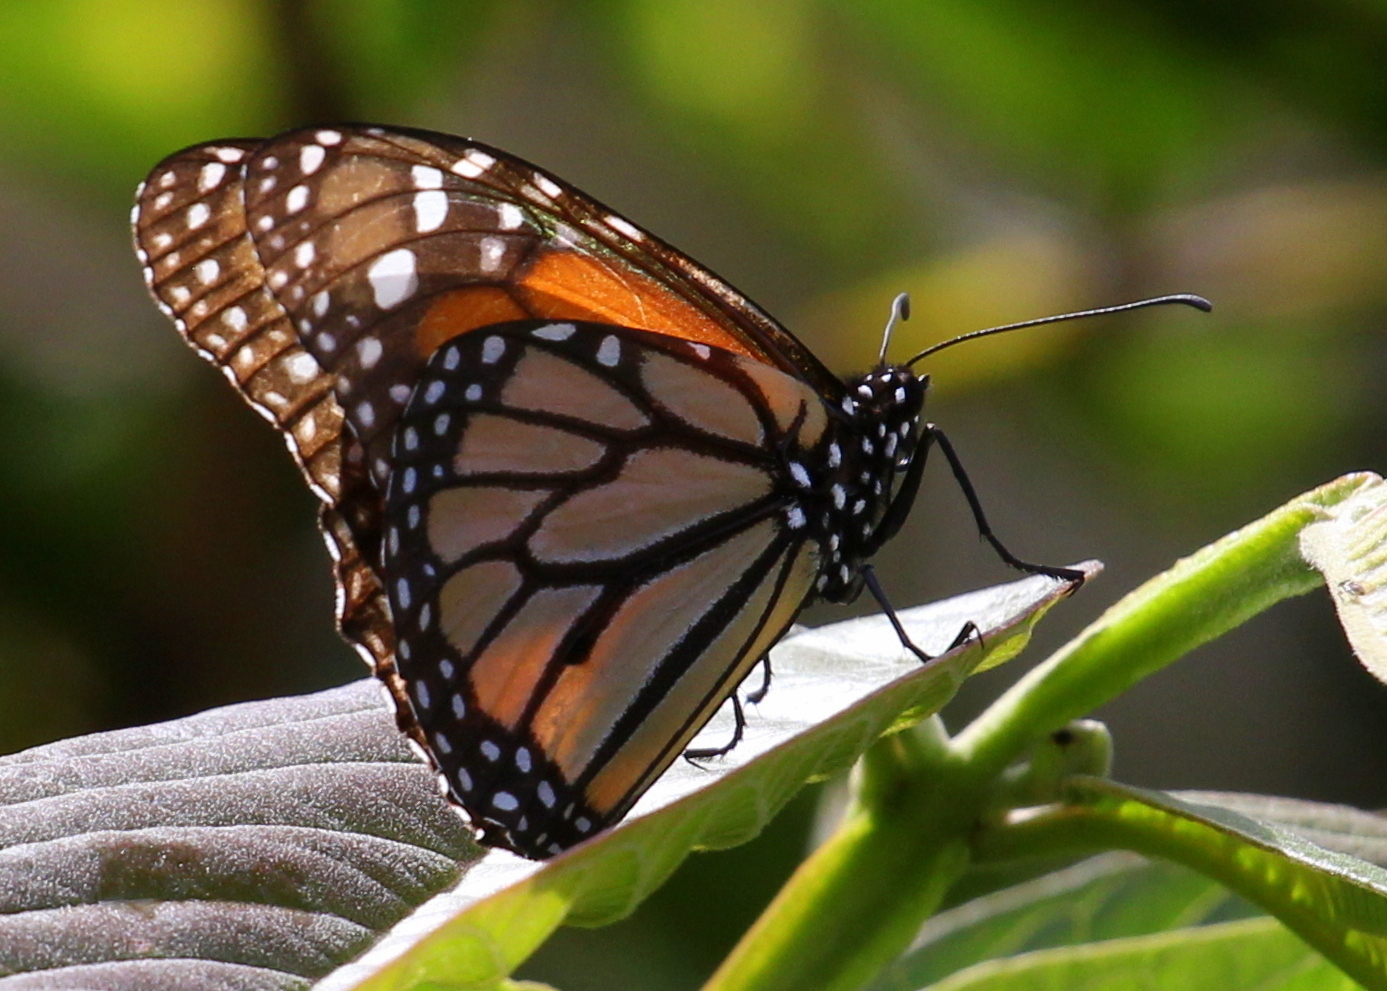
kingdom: Animalia
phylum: Arthropoda
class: Insecta
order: Lepidoptera
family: Nymphalidae
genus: Danaus
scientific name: Danaus plexippus
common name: Monarch
